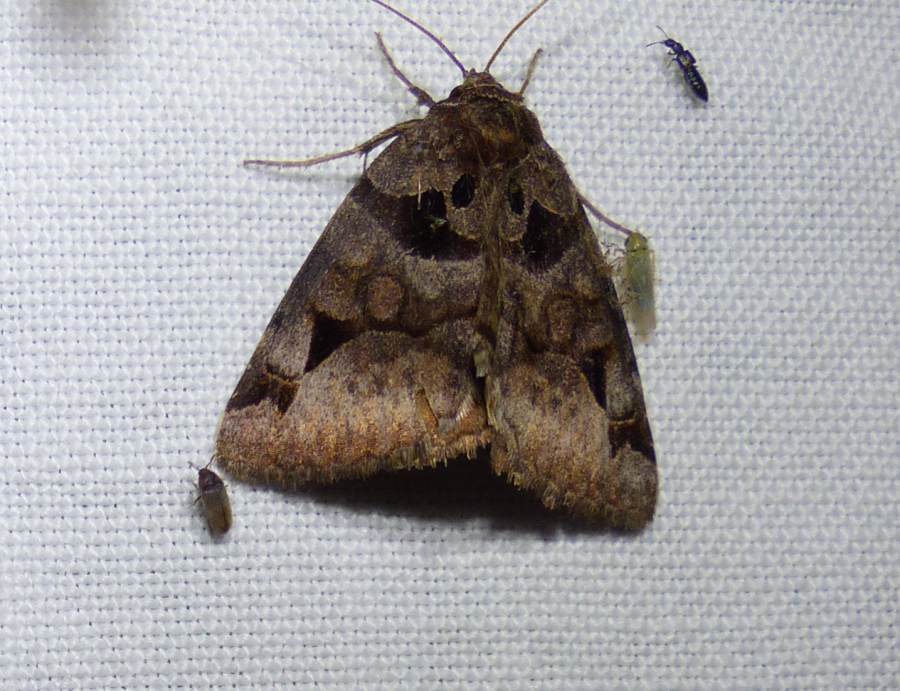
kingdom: Animalia
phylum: Arthropoda
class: Insecta
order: Lepidoptera
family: Erebidae
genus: Euclidia
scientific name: Euclidia cuspidea
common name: Toothed somberwing
